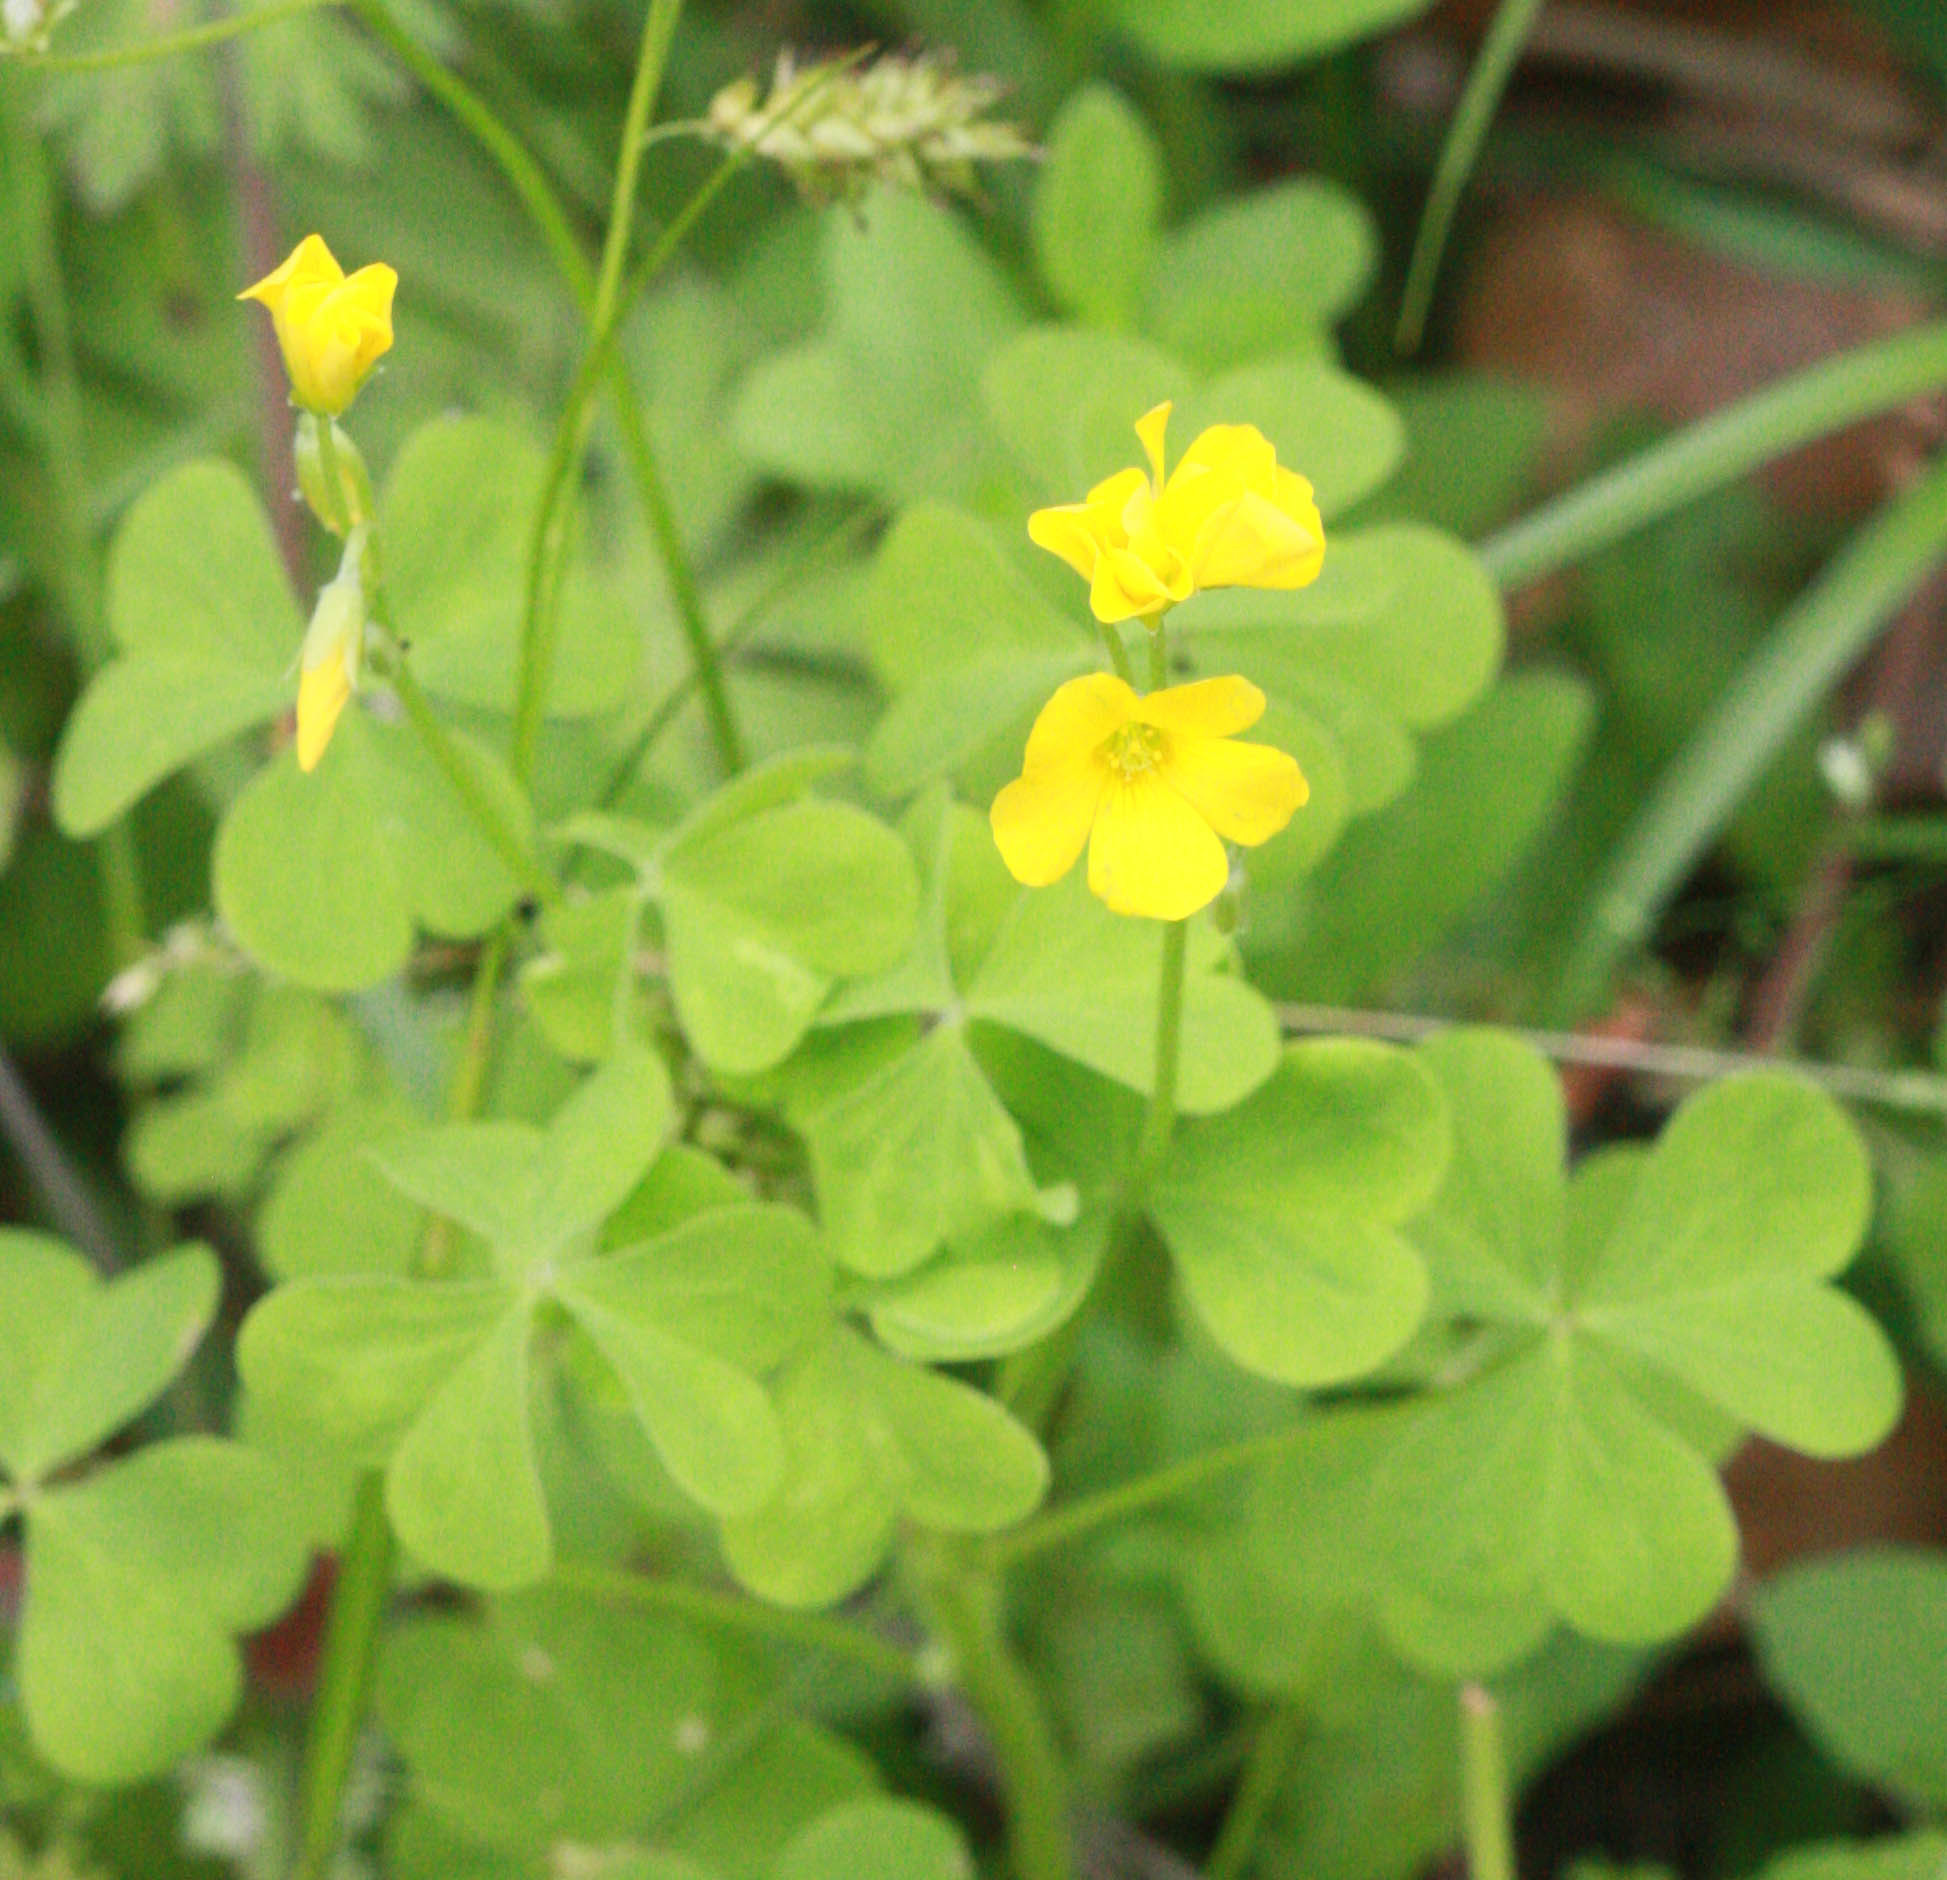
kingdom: Plantae
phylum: Tracheophyta
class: Magnoliopsida
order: Oxalidales
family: Oxalidaceae
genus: Oxalis
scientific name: Oxalis dillenii
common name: Sussex yellow-sorrel
